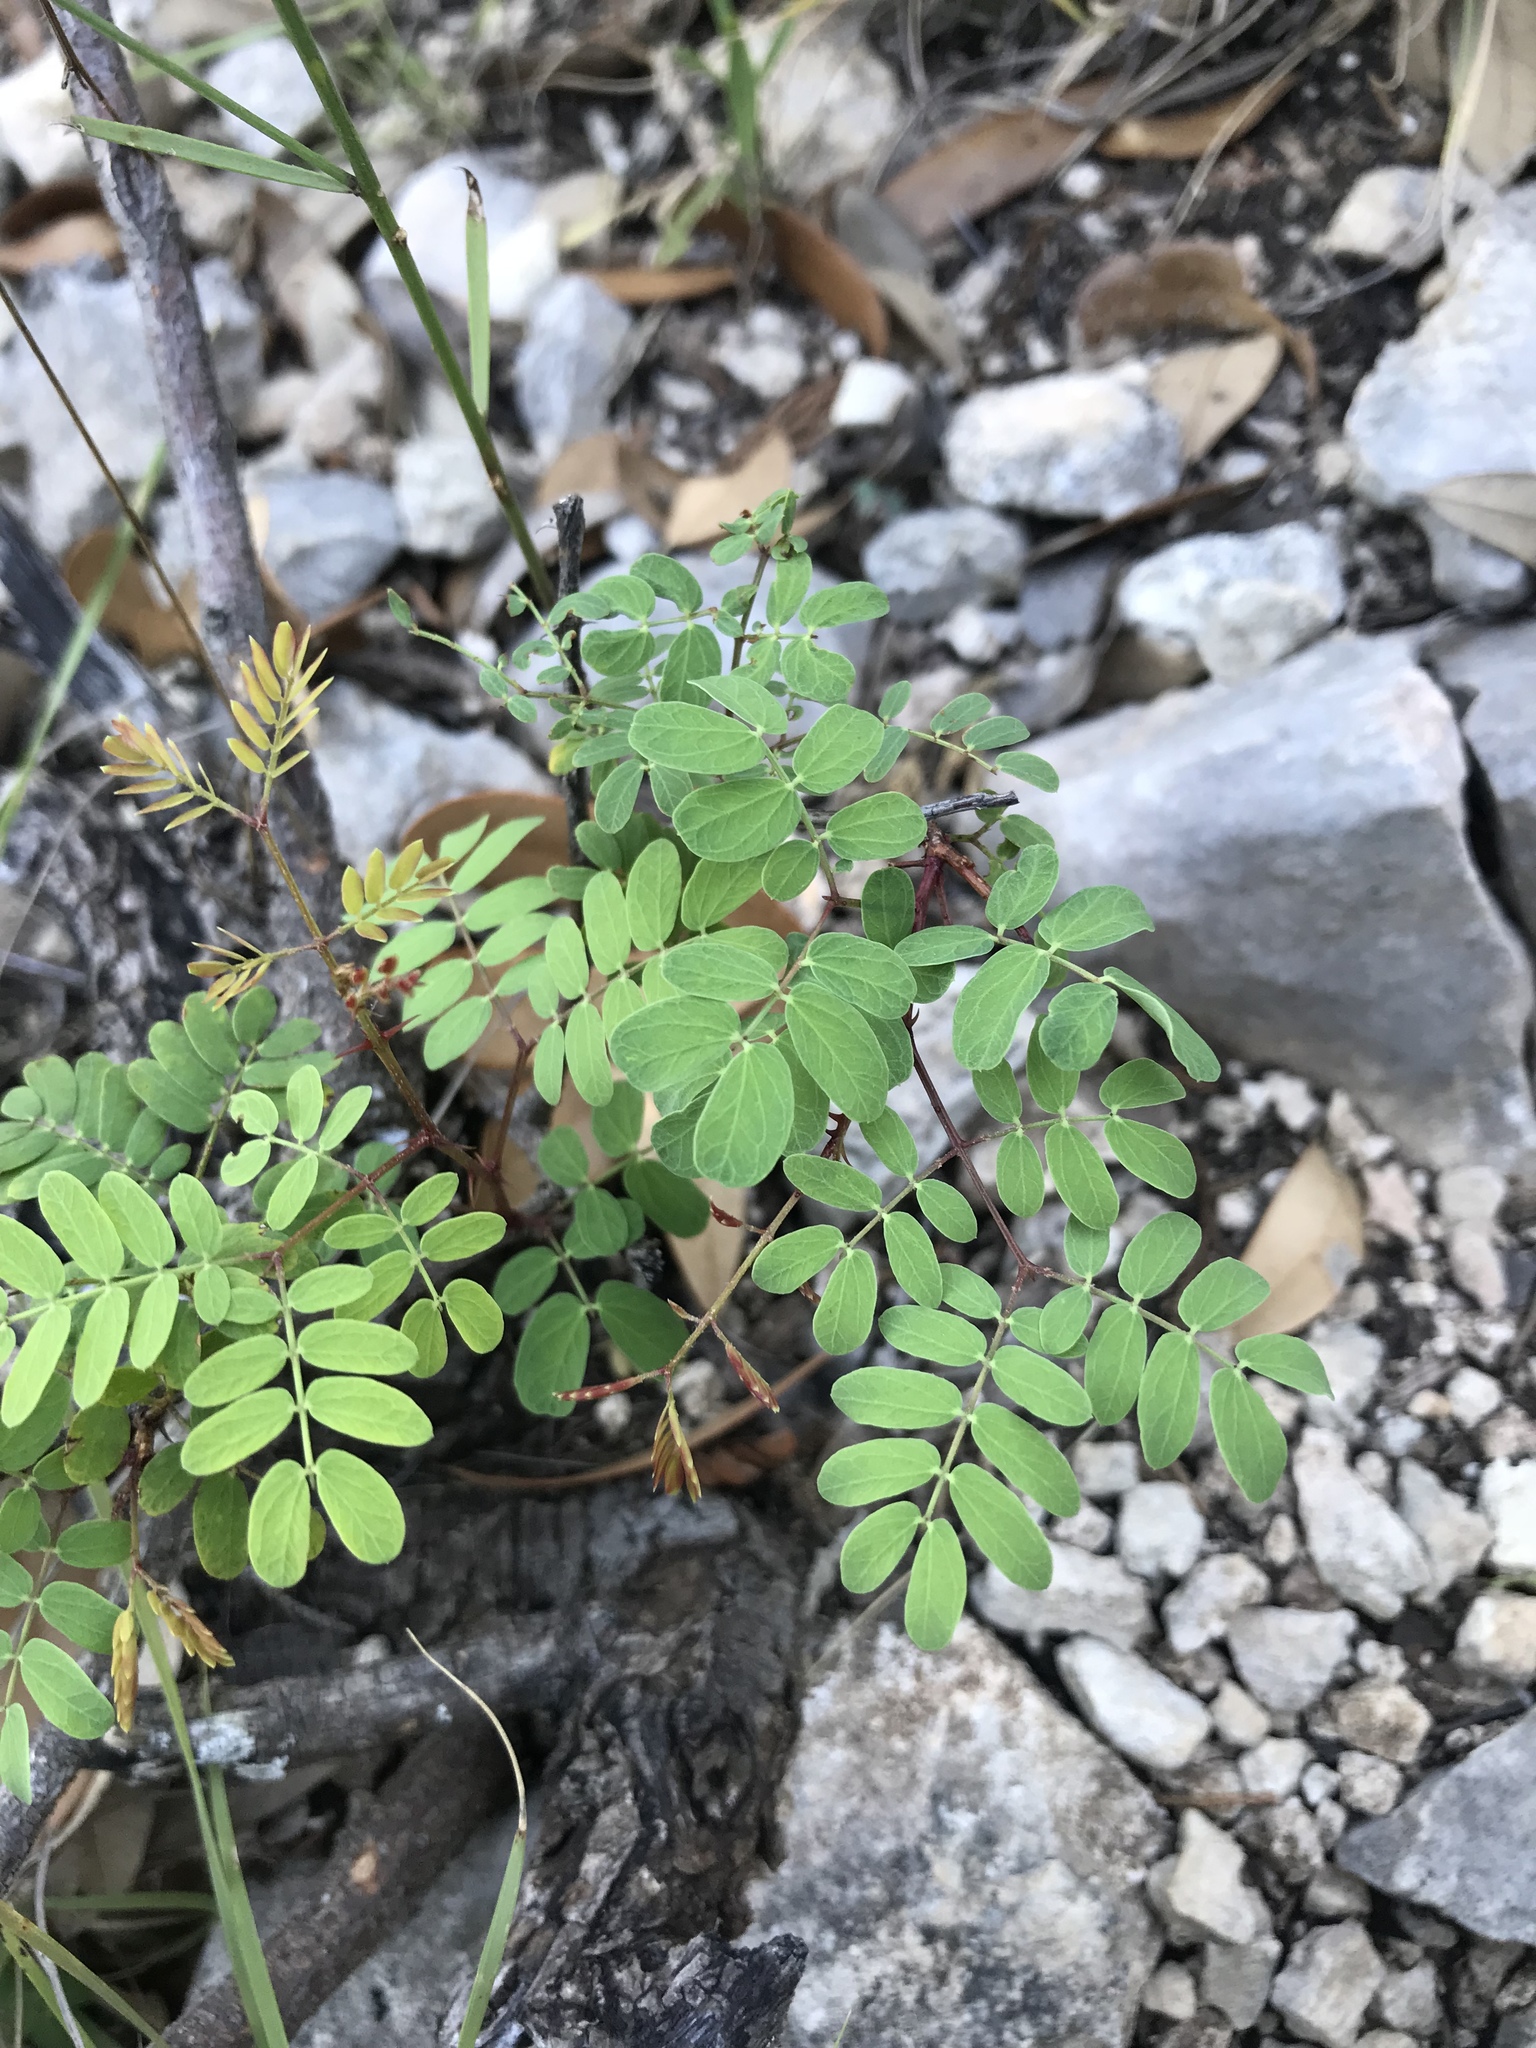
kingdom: Plantae
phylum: Tracheophyta
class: Magnoliopsida
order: Fabales
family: Fabaceae
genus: Senegalia
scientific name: Senegalia roemeriana
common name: Roemer's acacia
